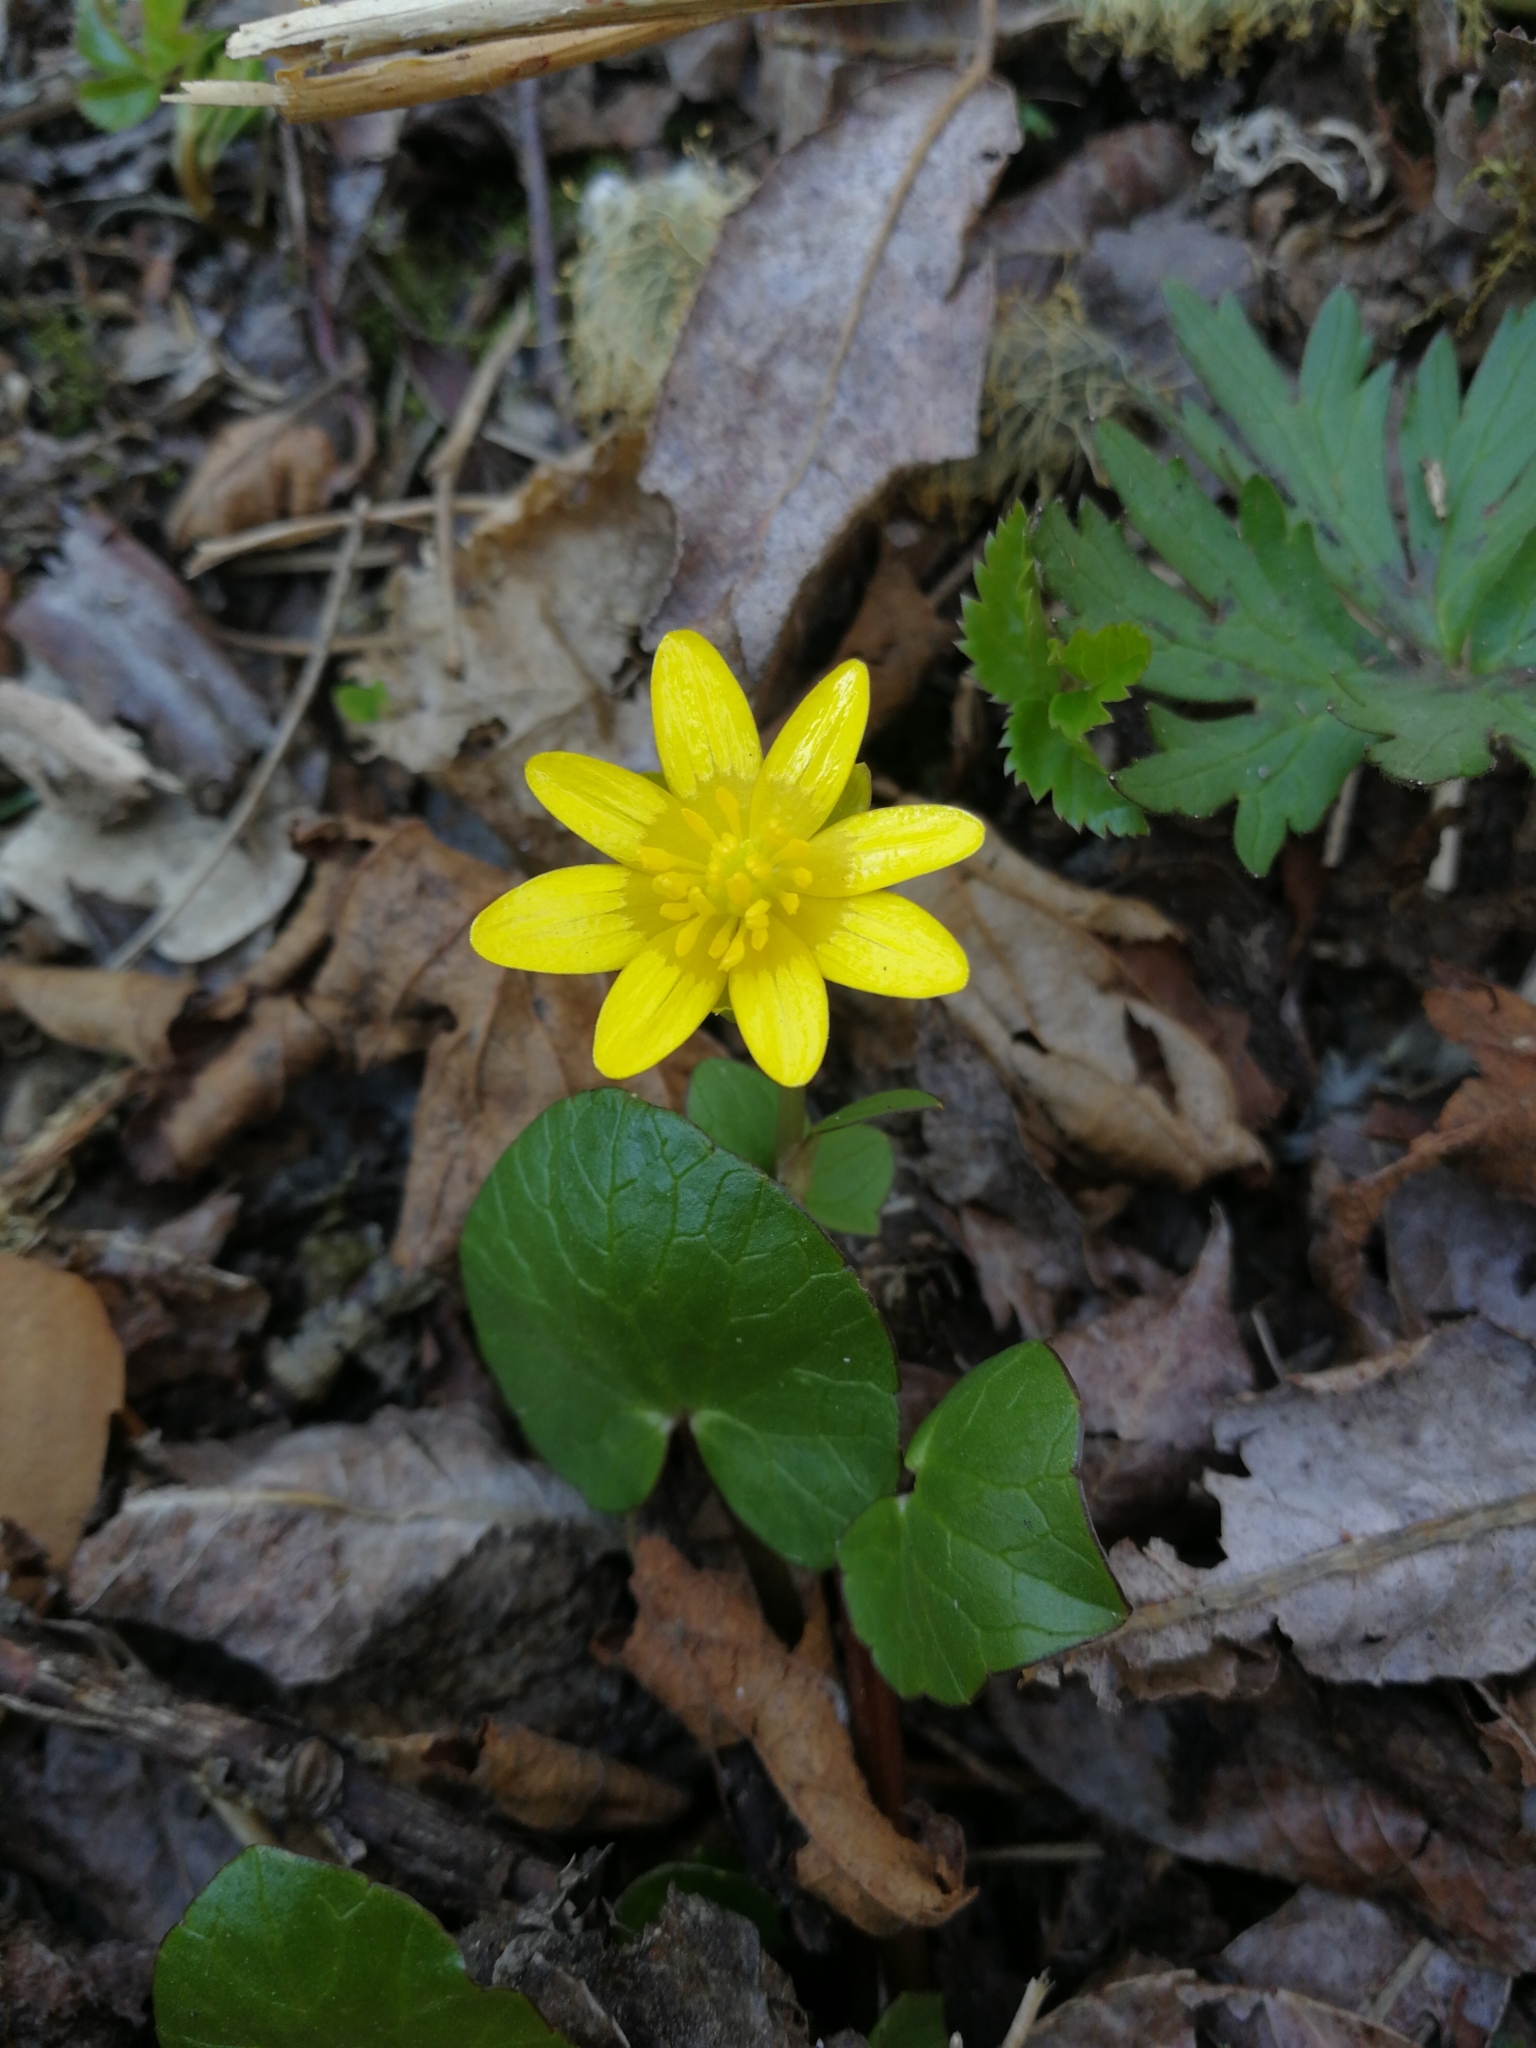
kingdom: Plantae
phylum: Tracheophyta
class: Magnoliopsida
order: Ranunculales
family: Ranunculaceae
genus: Ficaria
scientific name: Ficaria verna
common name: Lesser celandine
